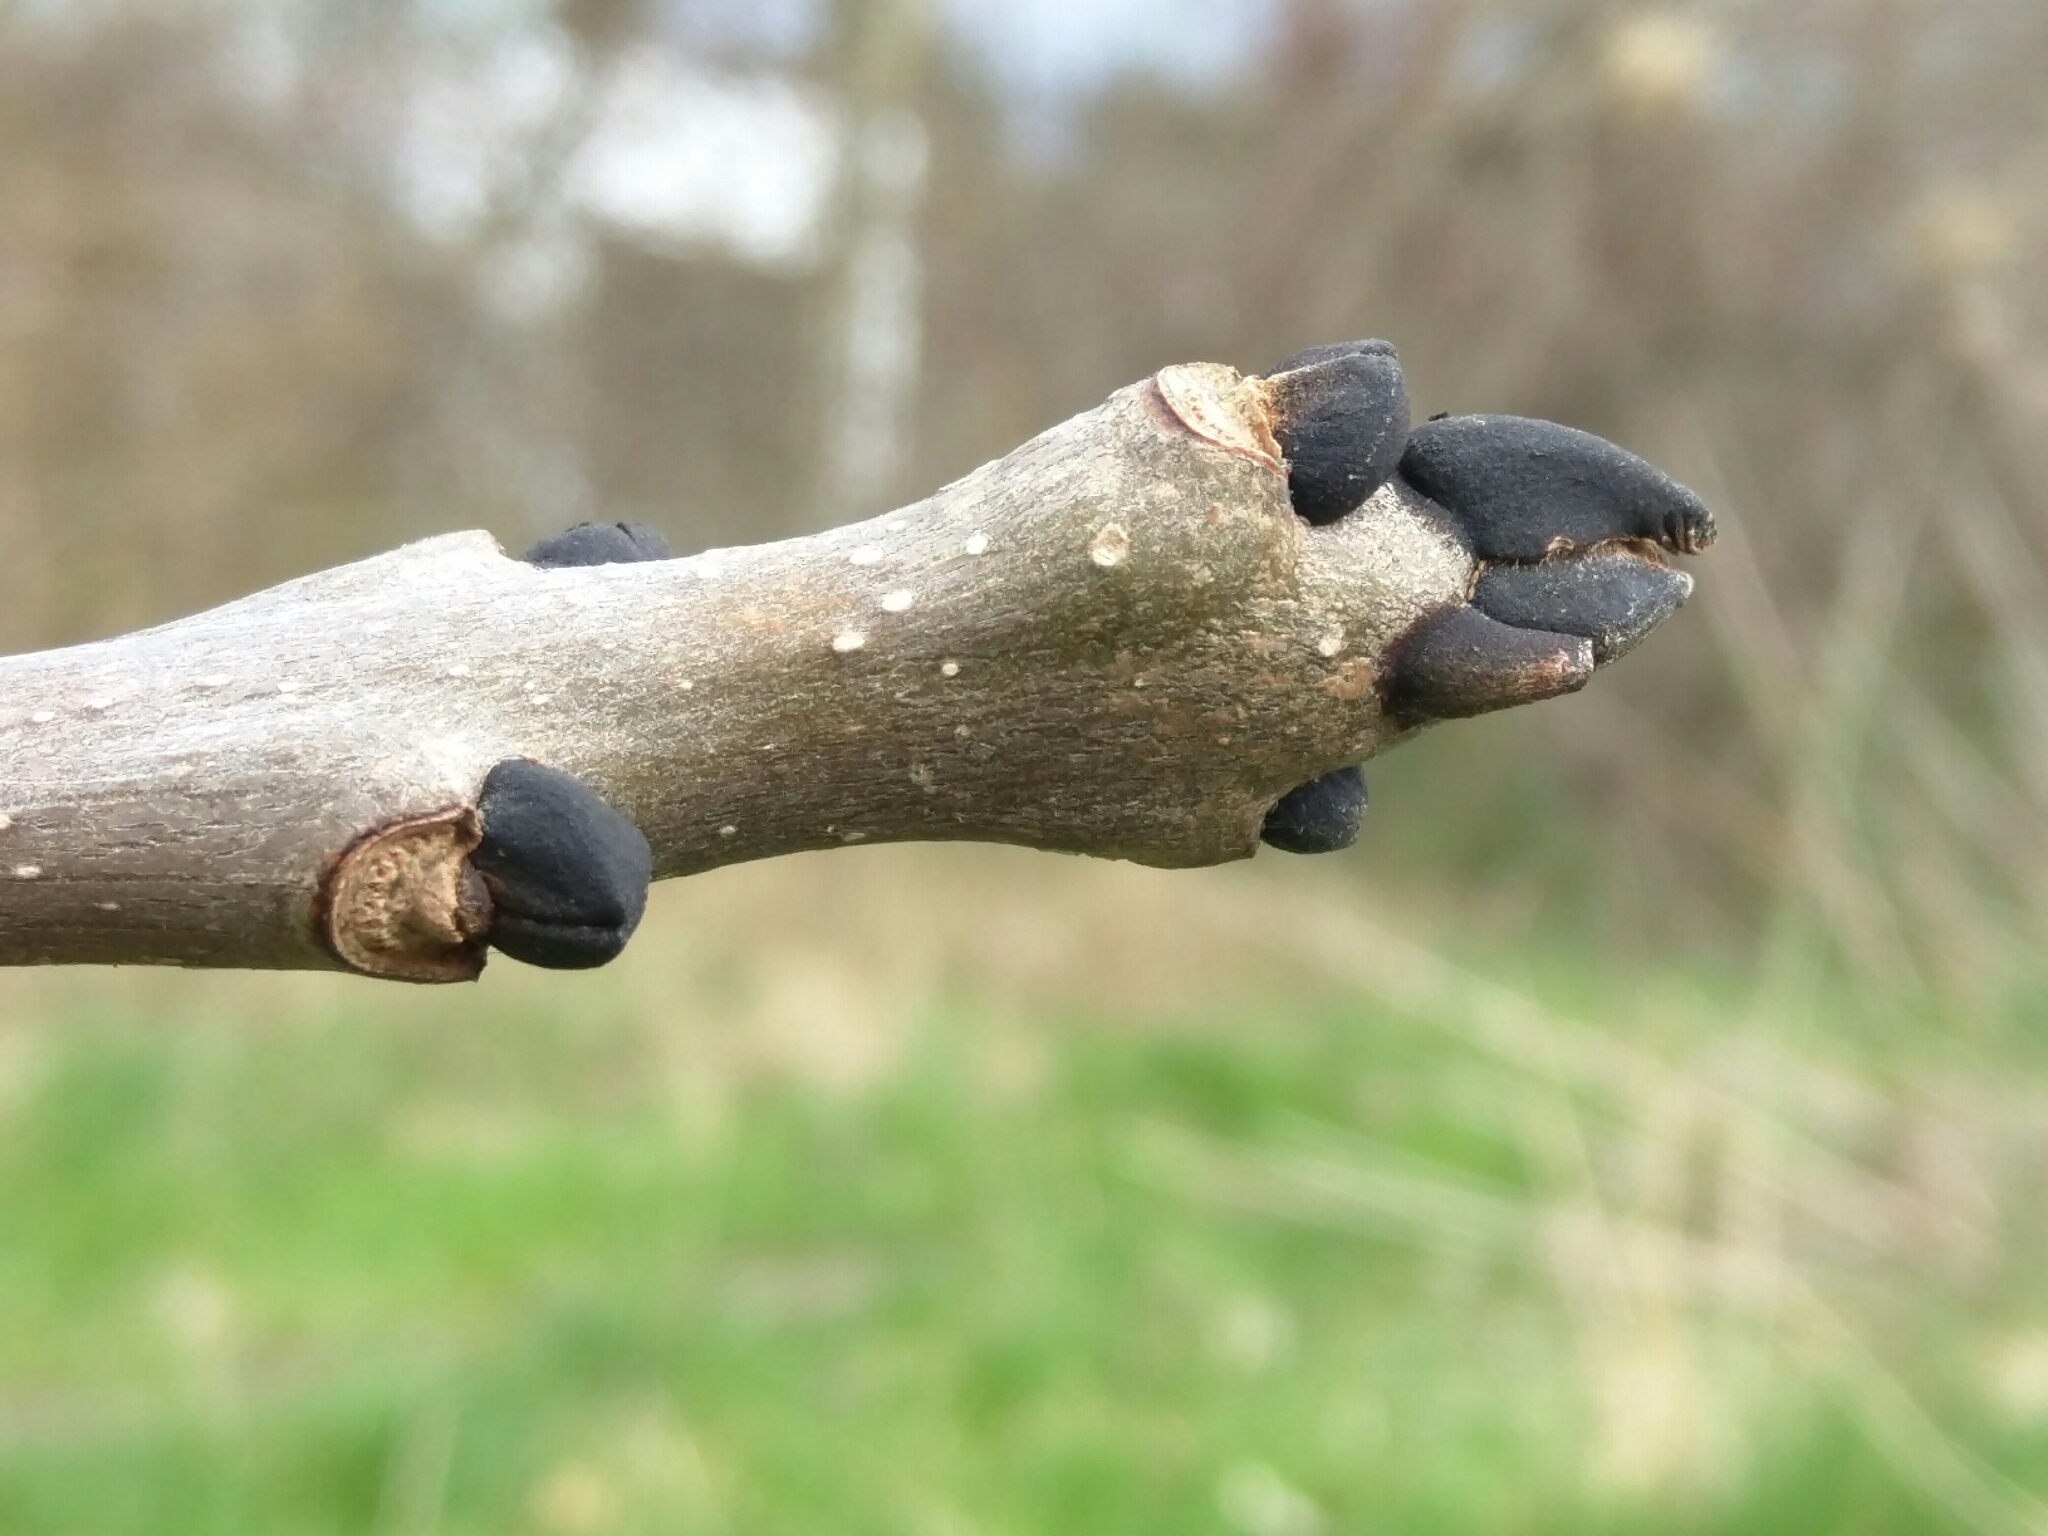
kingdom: Plantae
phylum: Tracheophyta
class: Magnoliopsida
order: Lamiales
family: Oleaceae
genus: Fraxinus
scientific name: Fraxinus excelsior
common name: European ash
